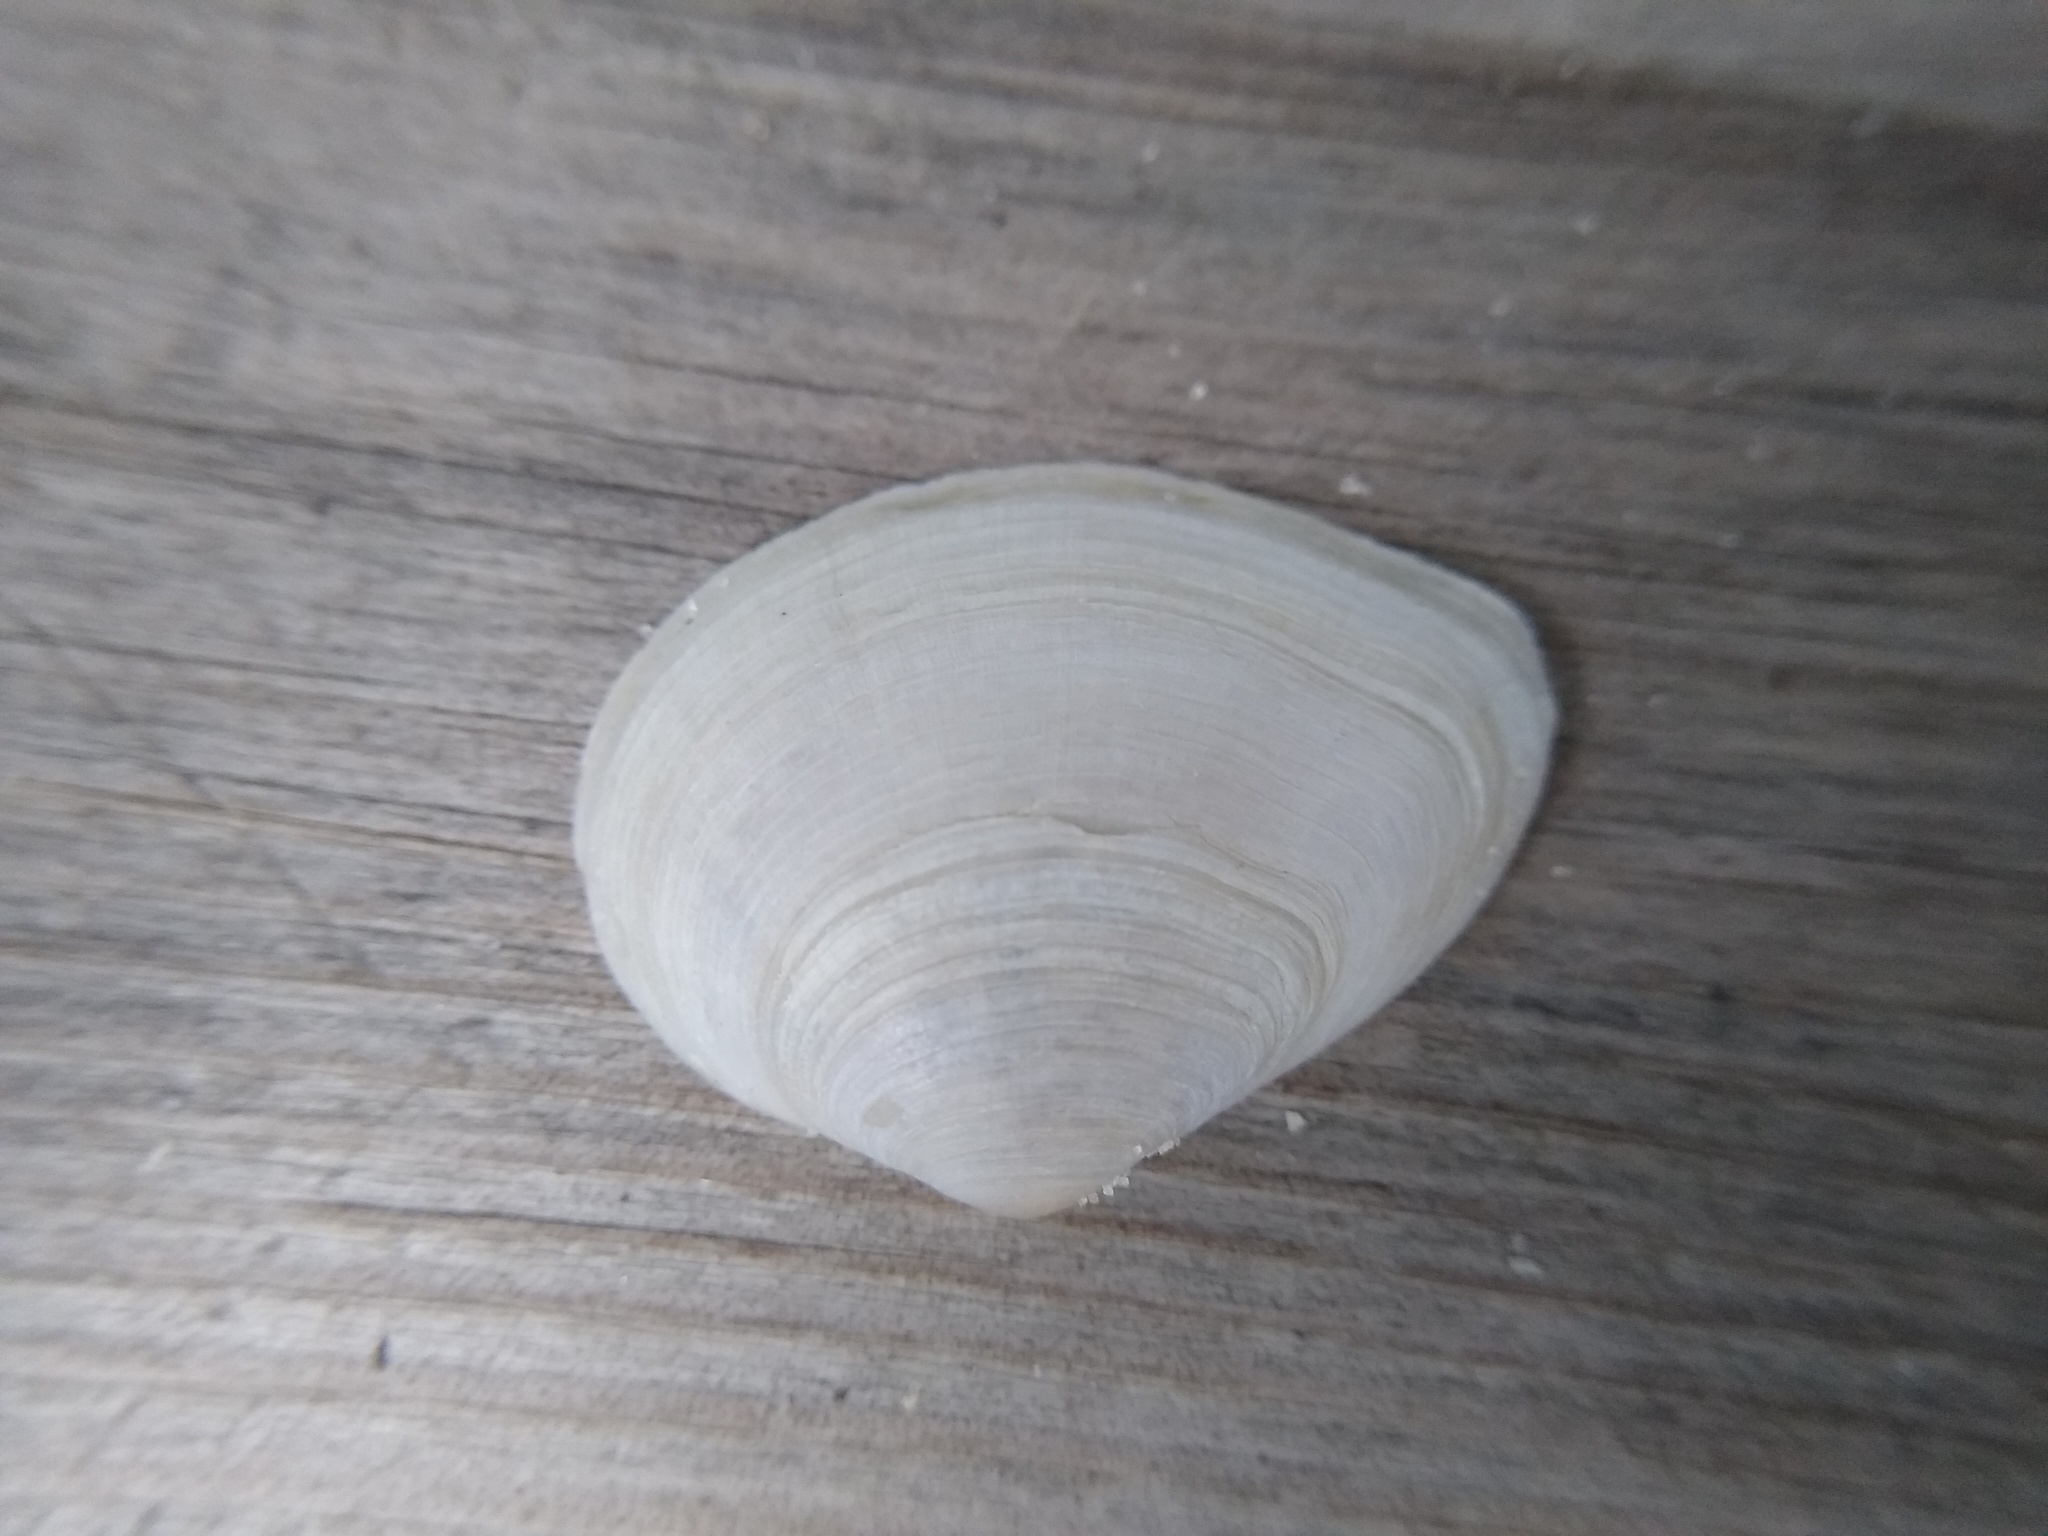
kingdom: Animalia
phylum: Mollusca
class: Bivalvia
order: Cardiida
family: Tellinidae
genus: Gastrana
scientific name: Gastrana fragilis
